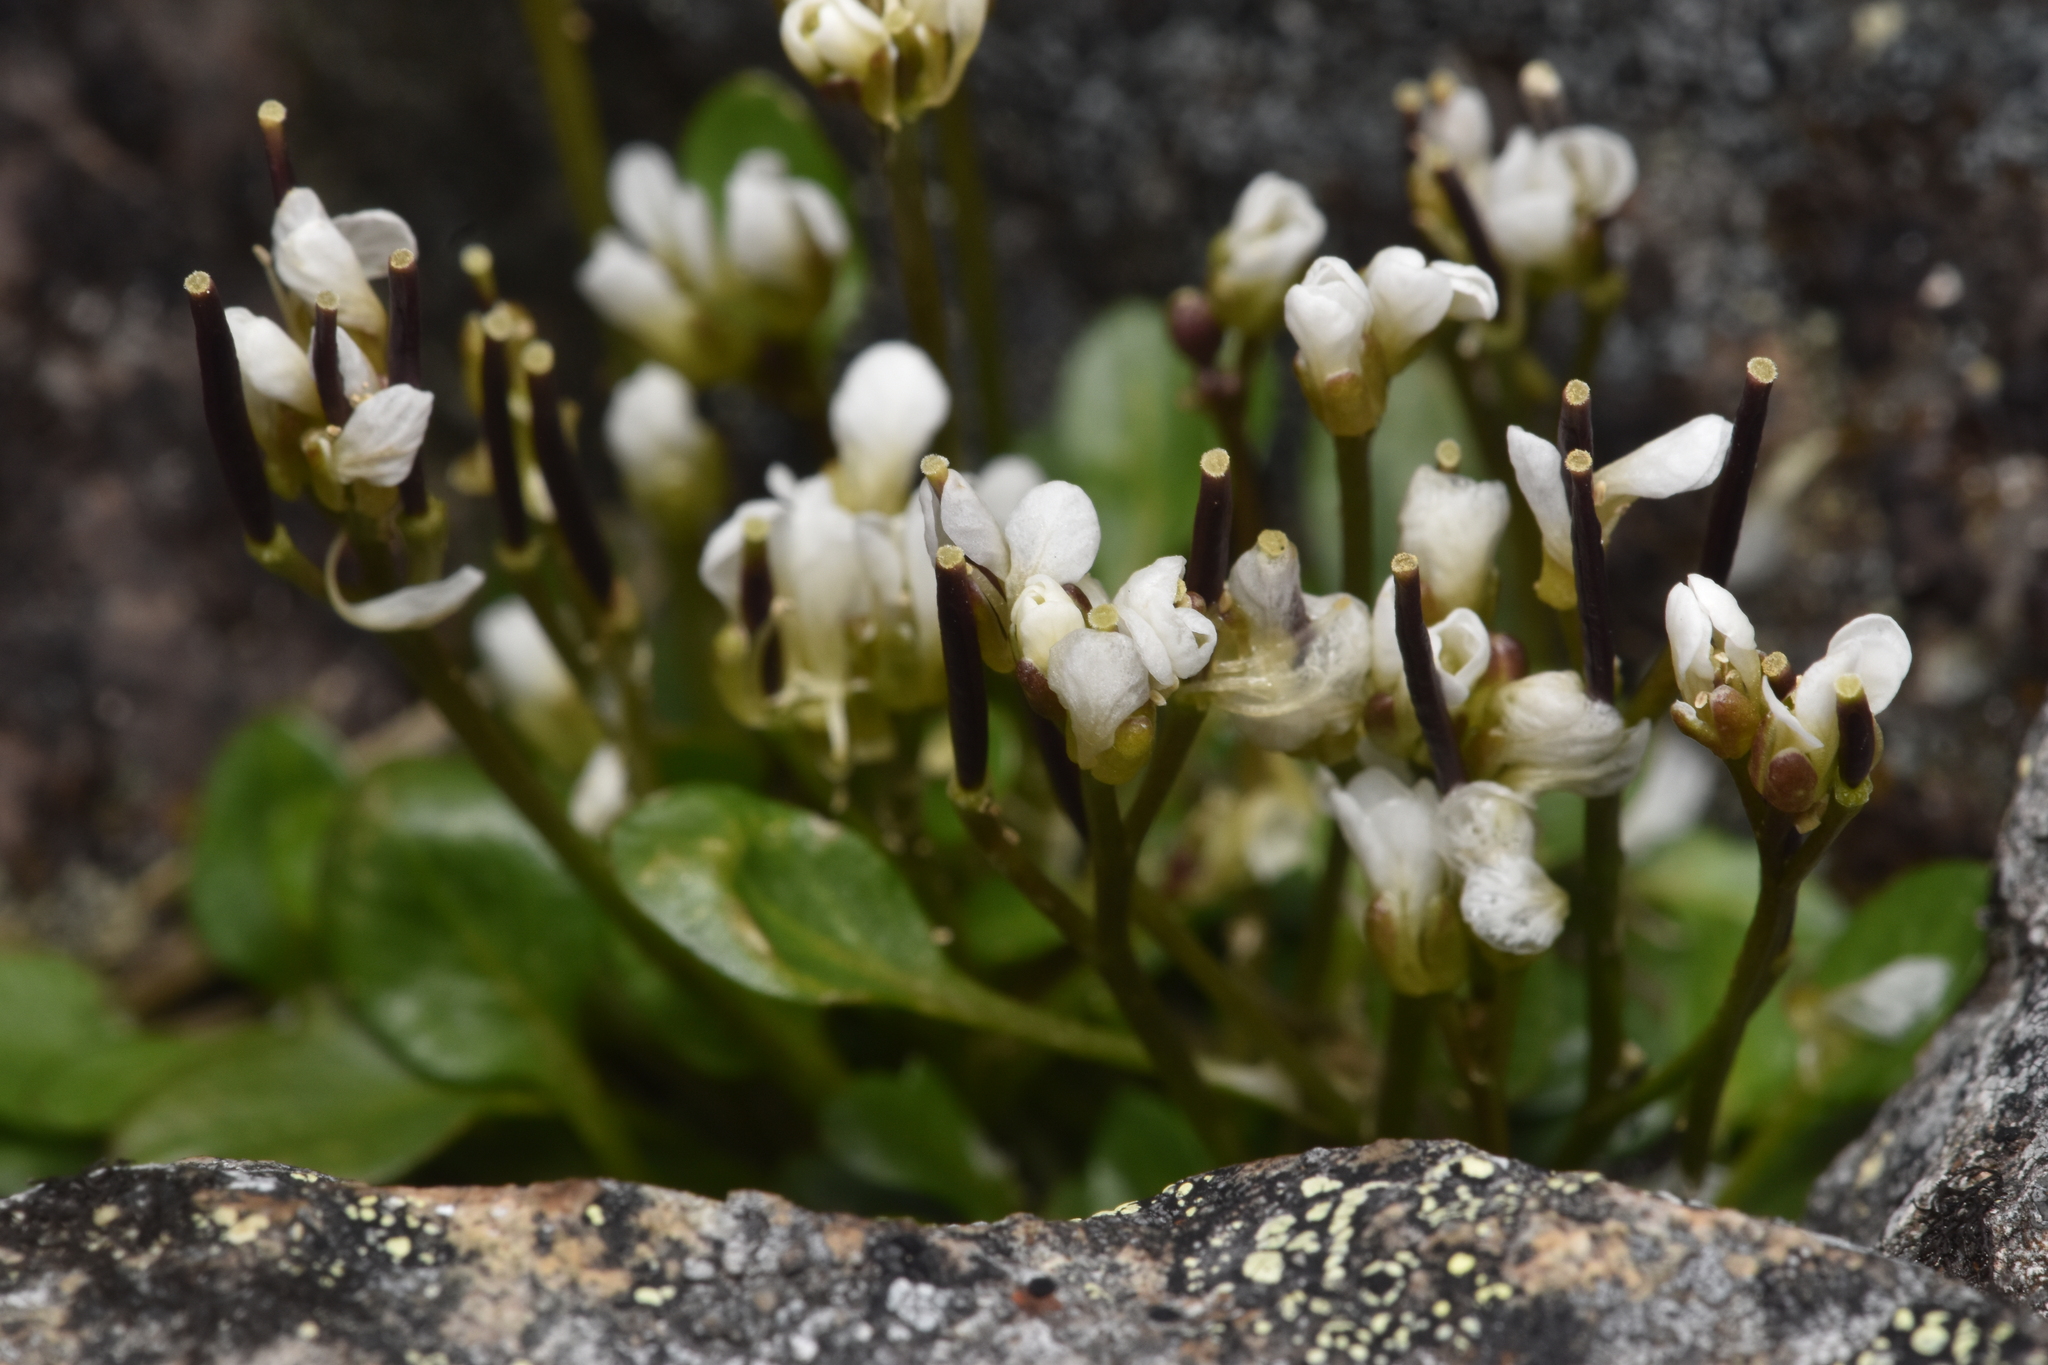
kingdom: Plantae
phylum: Tracheophyta
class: Magnoliopsida
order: Brassicales
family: Brassicaceae
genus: Cardamine
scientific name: Cardamine bellidifolia
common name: Alpine bittercress
